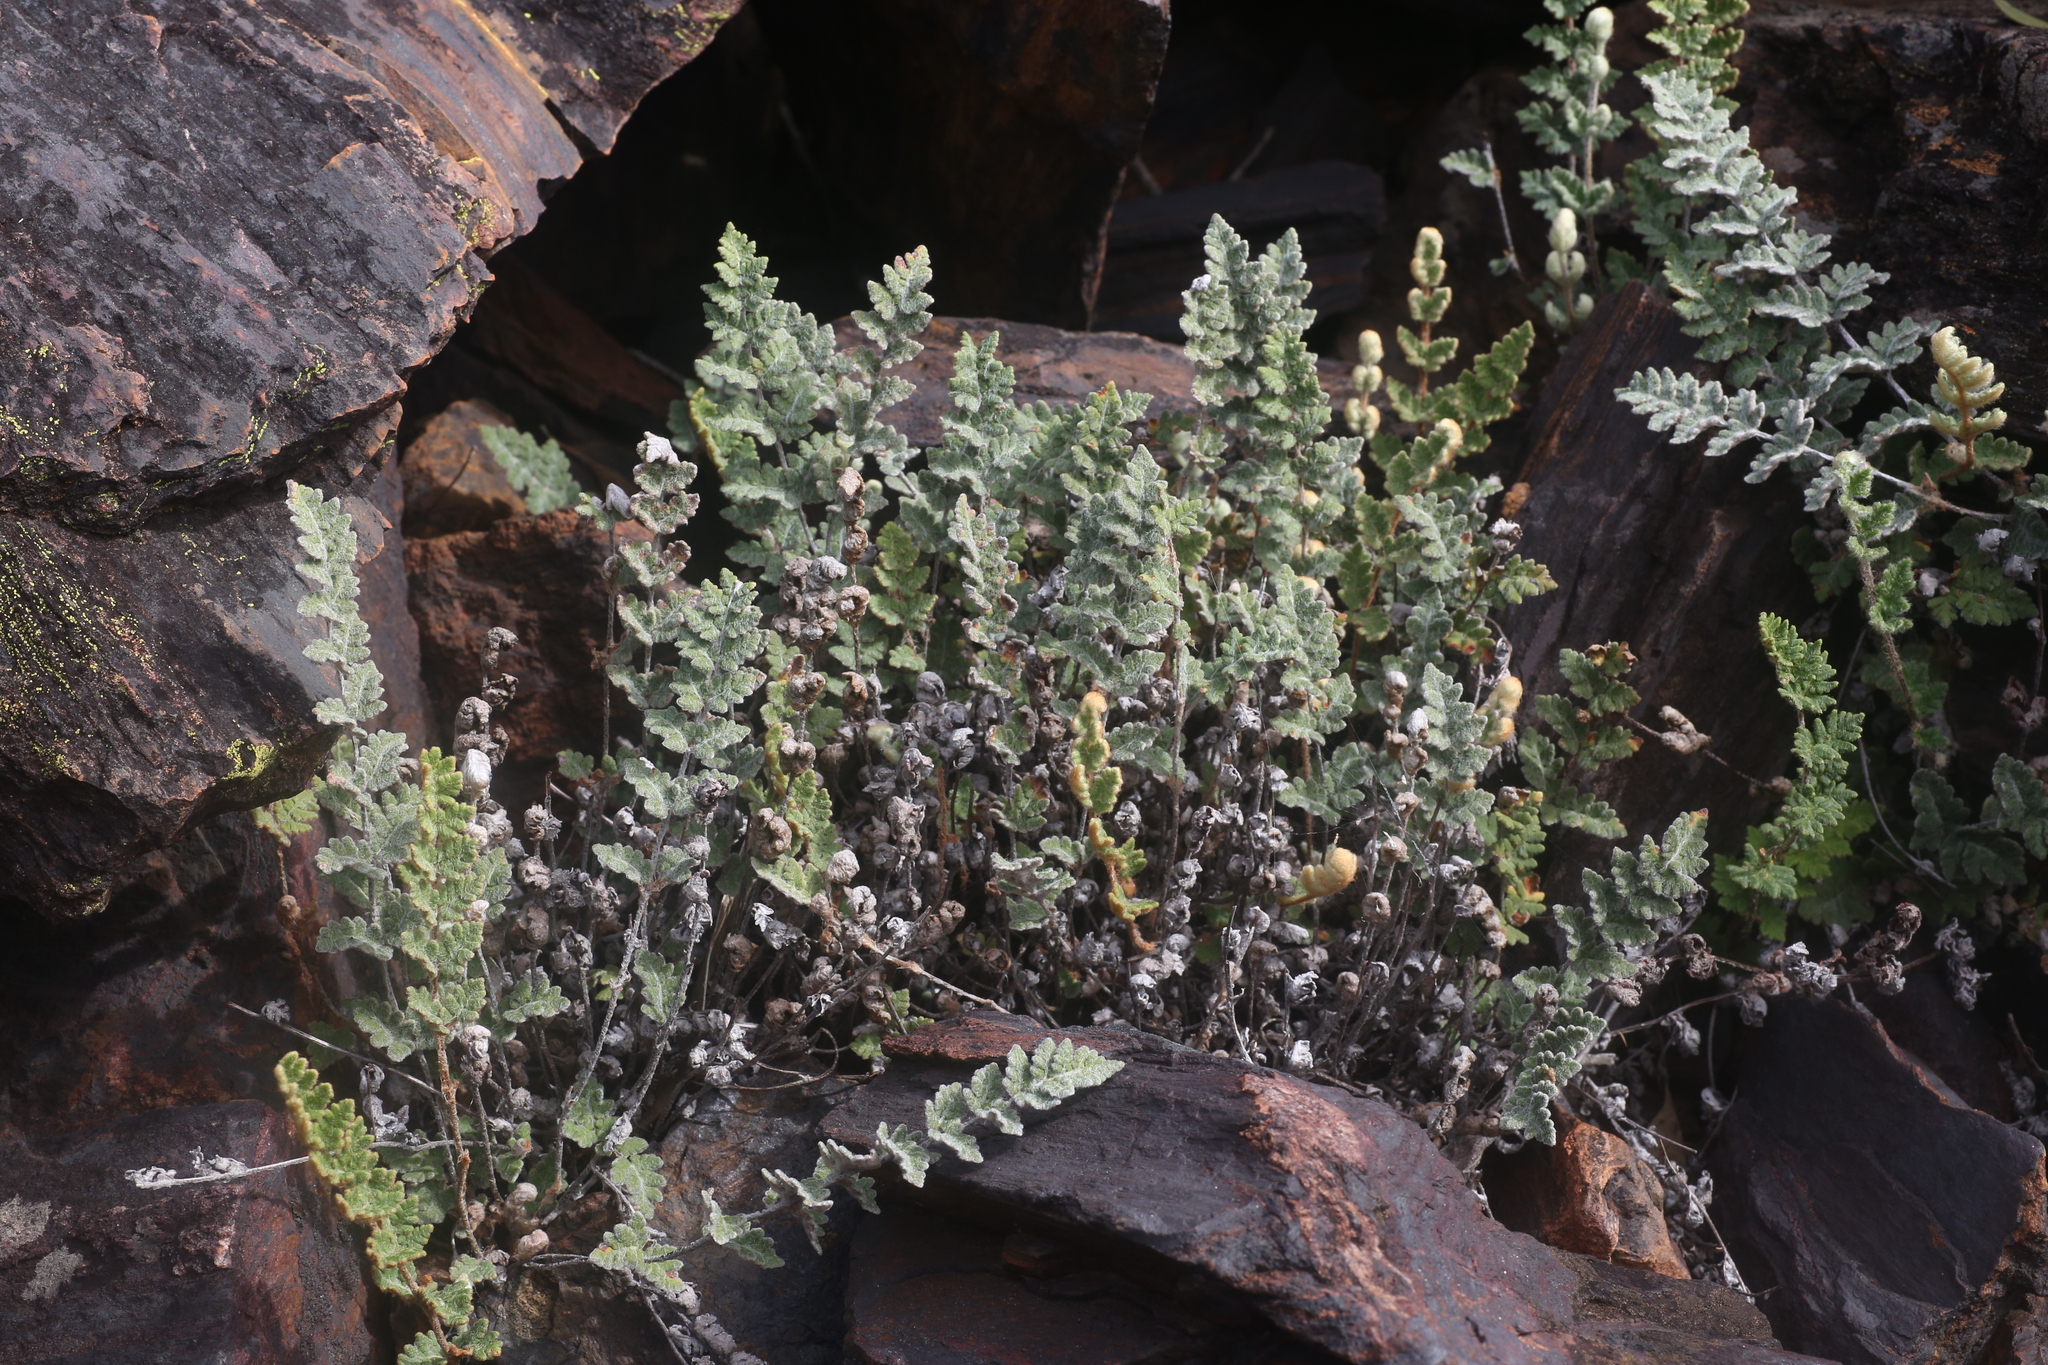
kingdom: Plantae
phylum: Tracheophyta
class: Polypodiopsida
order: Polypodiales
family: Pteridaceae
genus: Cheilanthes
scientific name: Cheilanthes lasiophylla
